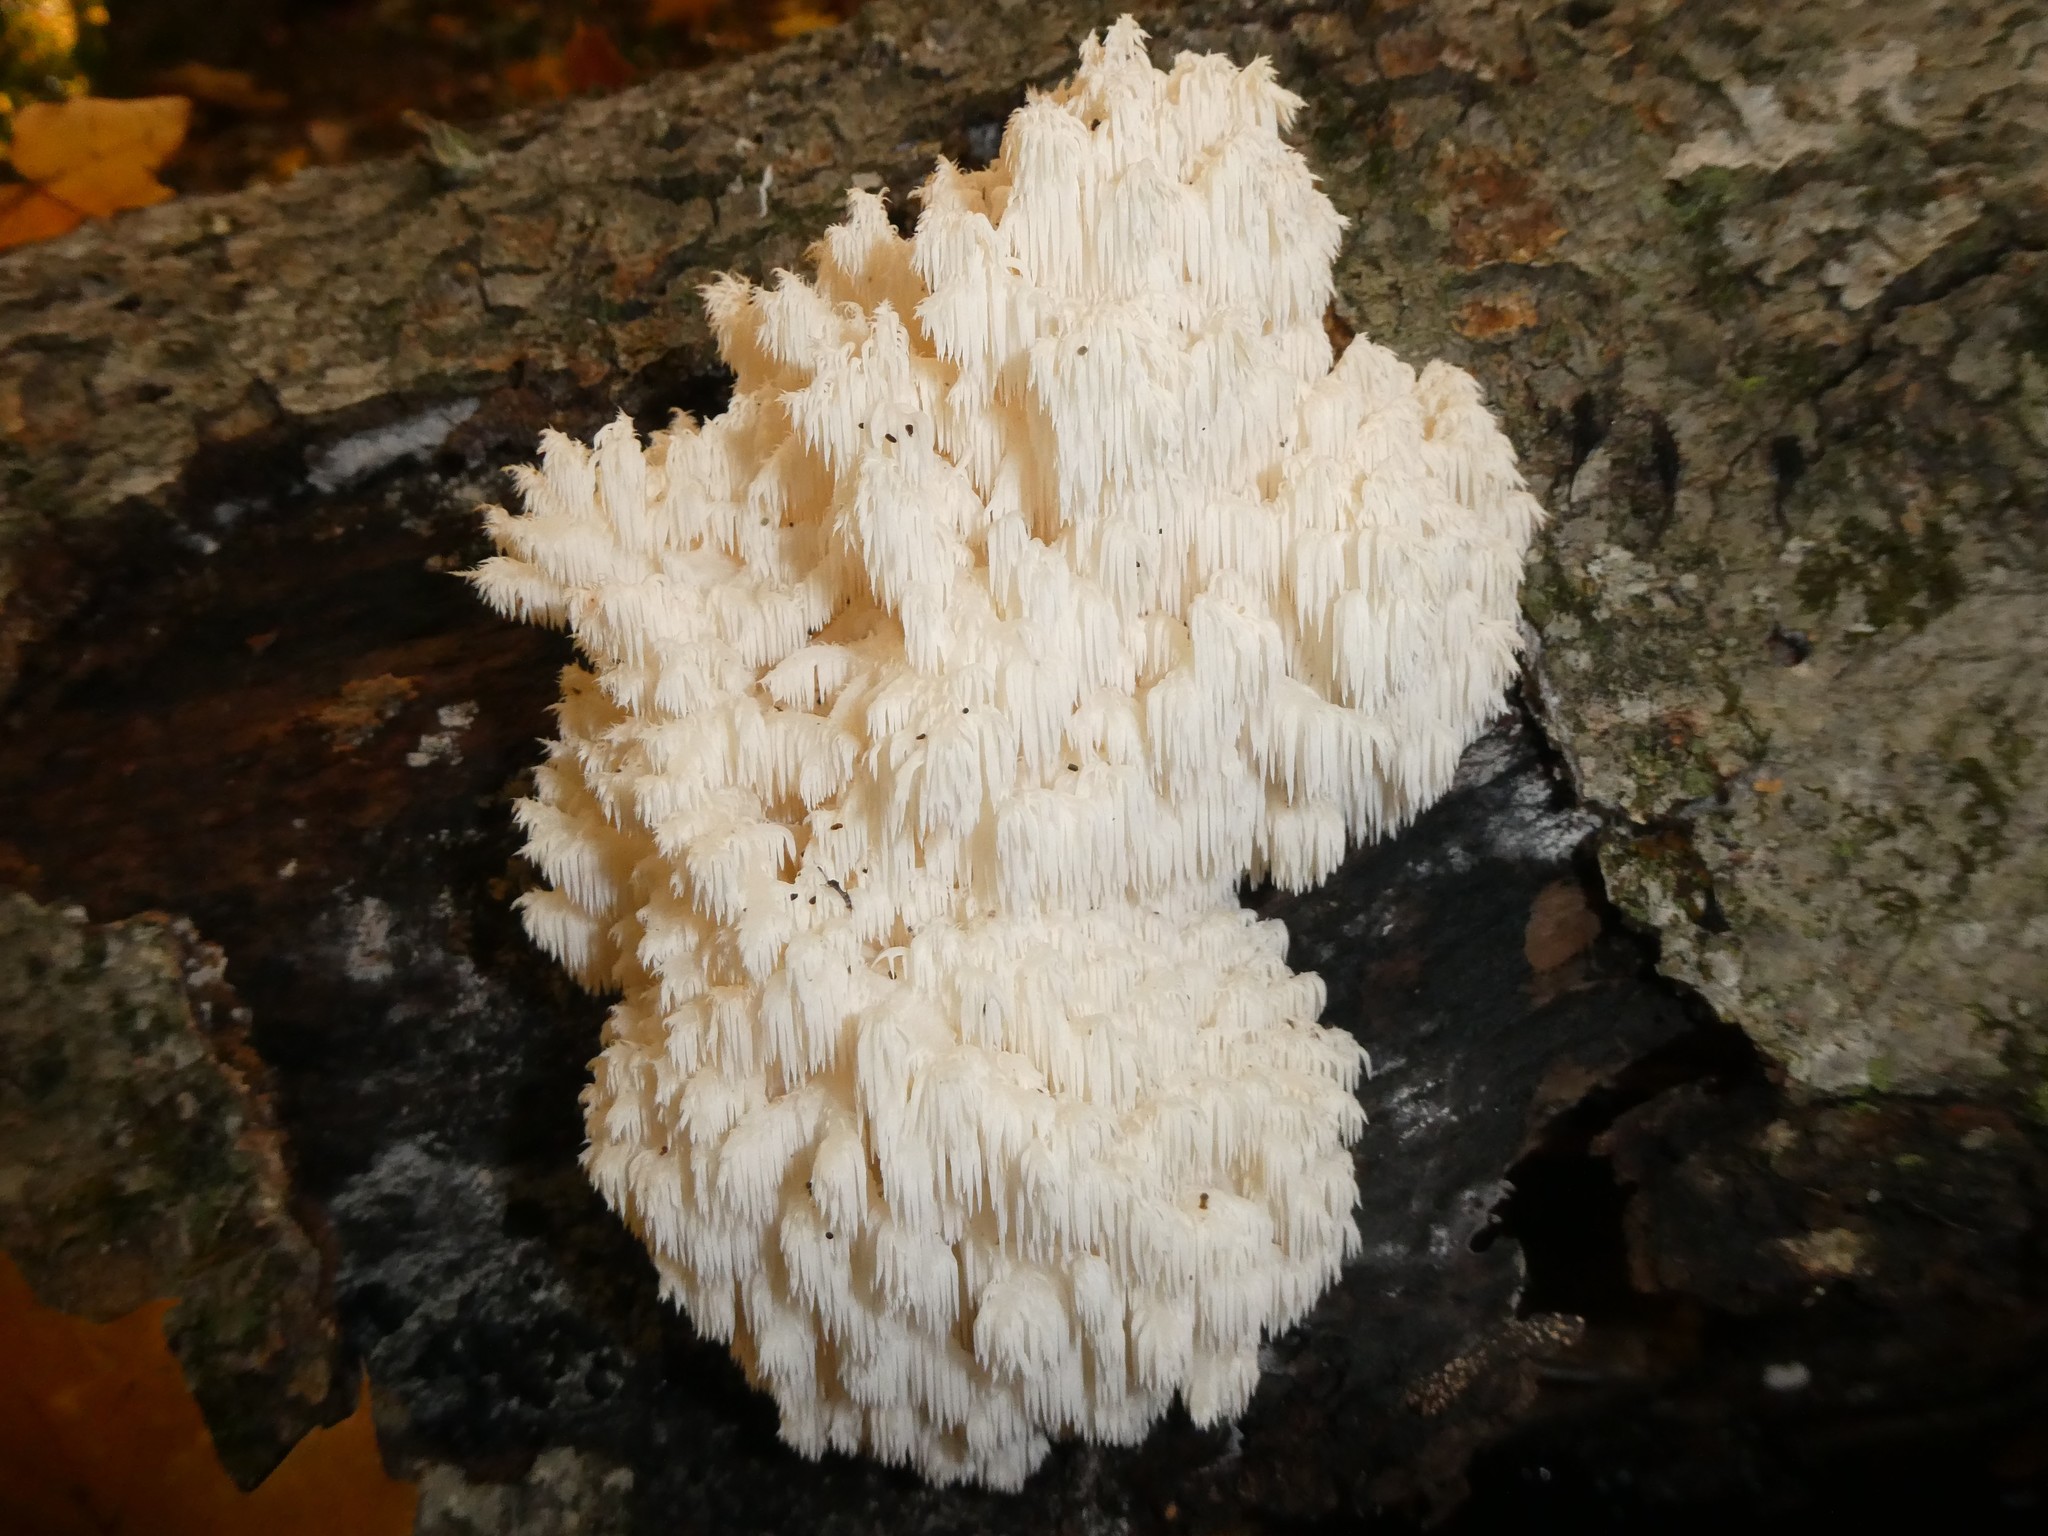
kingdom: Fungi
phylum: Basidiomycota
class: Agaricomycetes
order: Russulales
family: Hericiaceae
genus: Hericium
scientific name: Hericium coralloides
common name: Coral tooth
